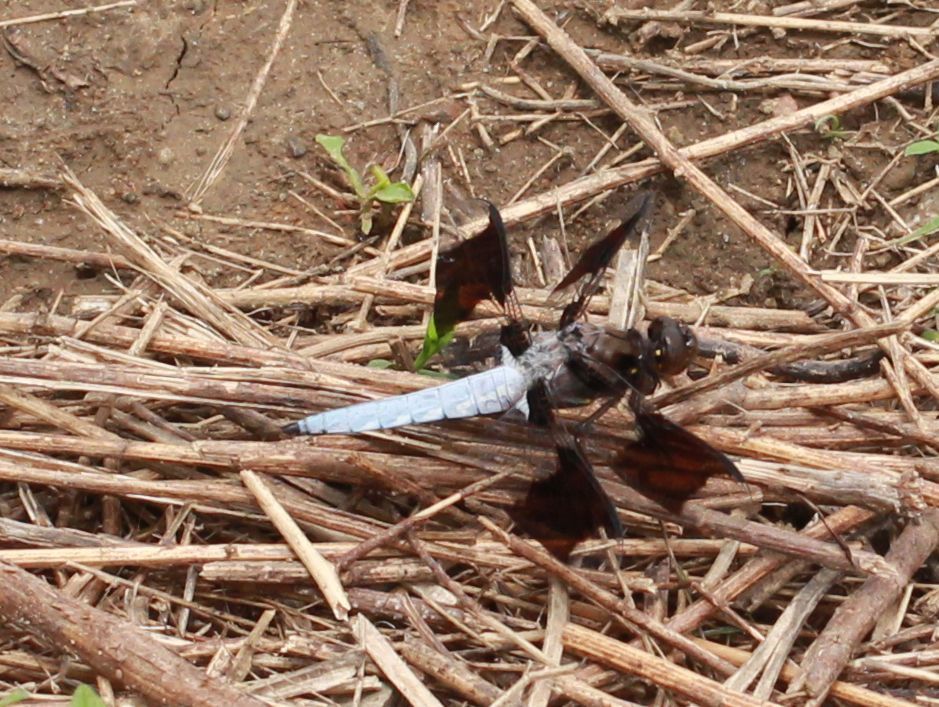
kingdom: Animalia
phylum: Arthropoda
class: Insecta
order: Odonata
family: Libellulidae
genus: Plathemis
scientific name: Plathemis lydia
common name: Common whitetail
